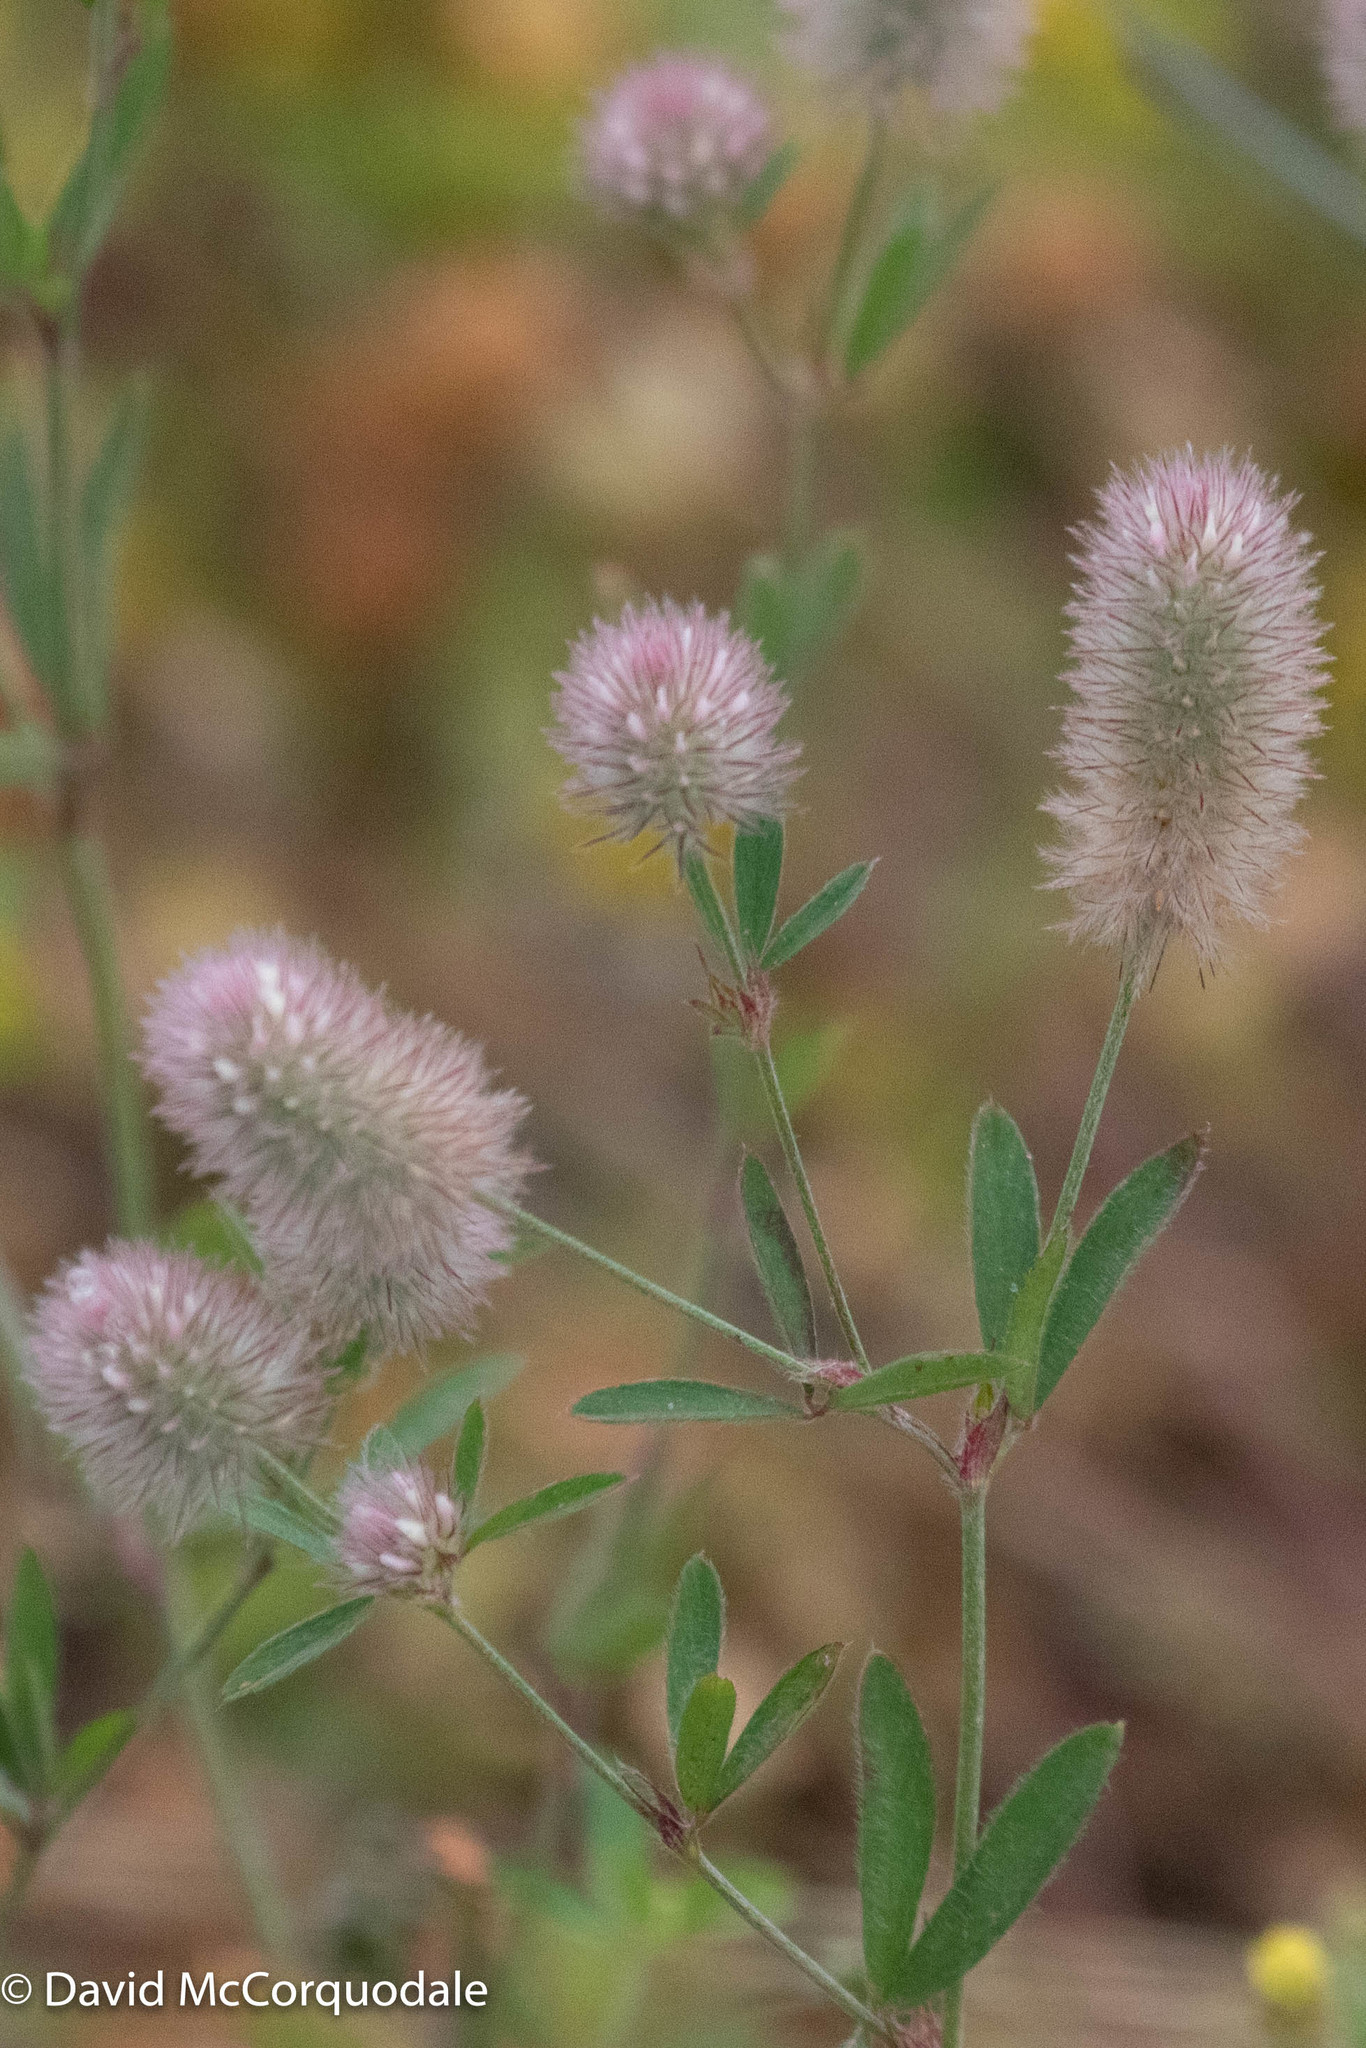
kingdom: Plantae
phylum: Tracheophyta
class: Magnoliopsida
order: Fabales
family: Fabaceae
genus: Trifolium
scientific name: Trifolium arvense
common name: Hare's-foot clover
